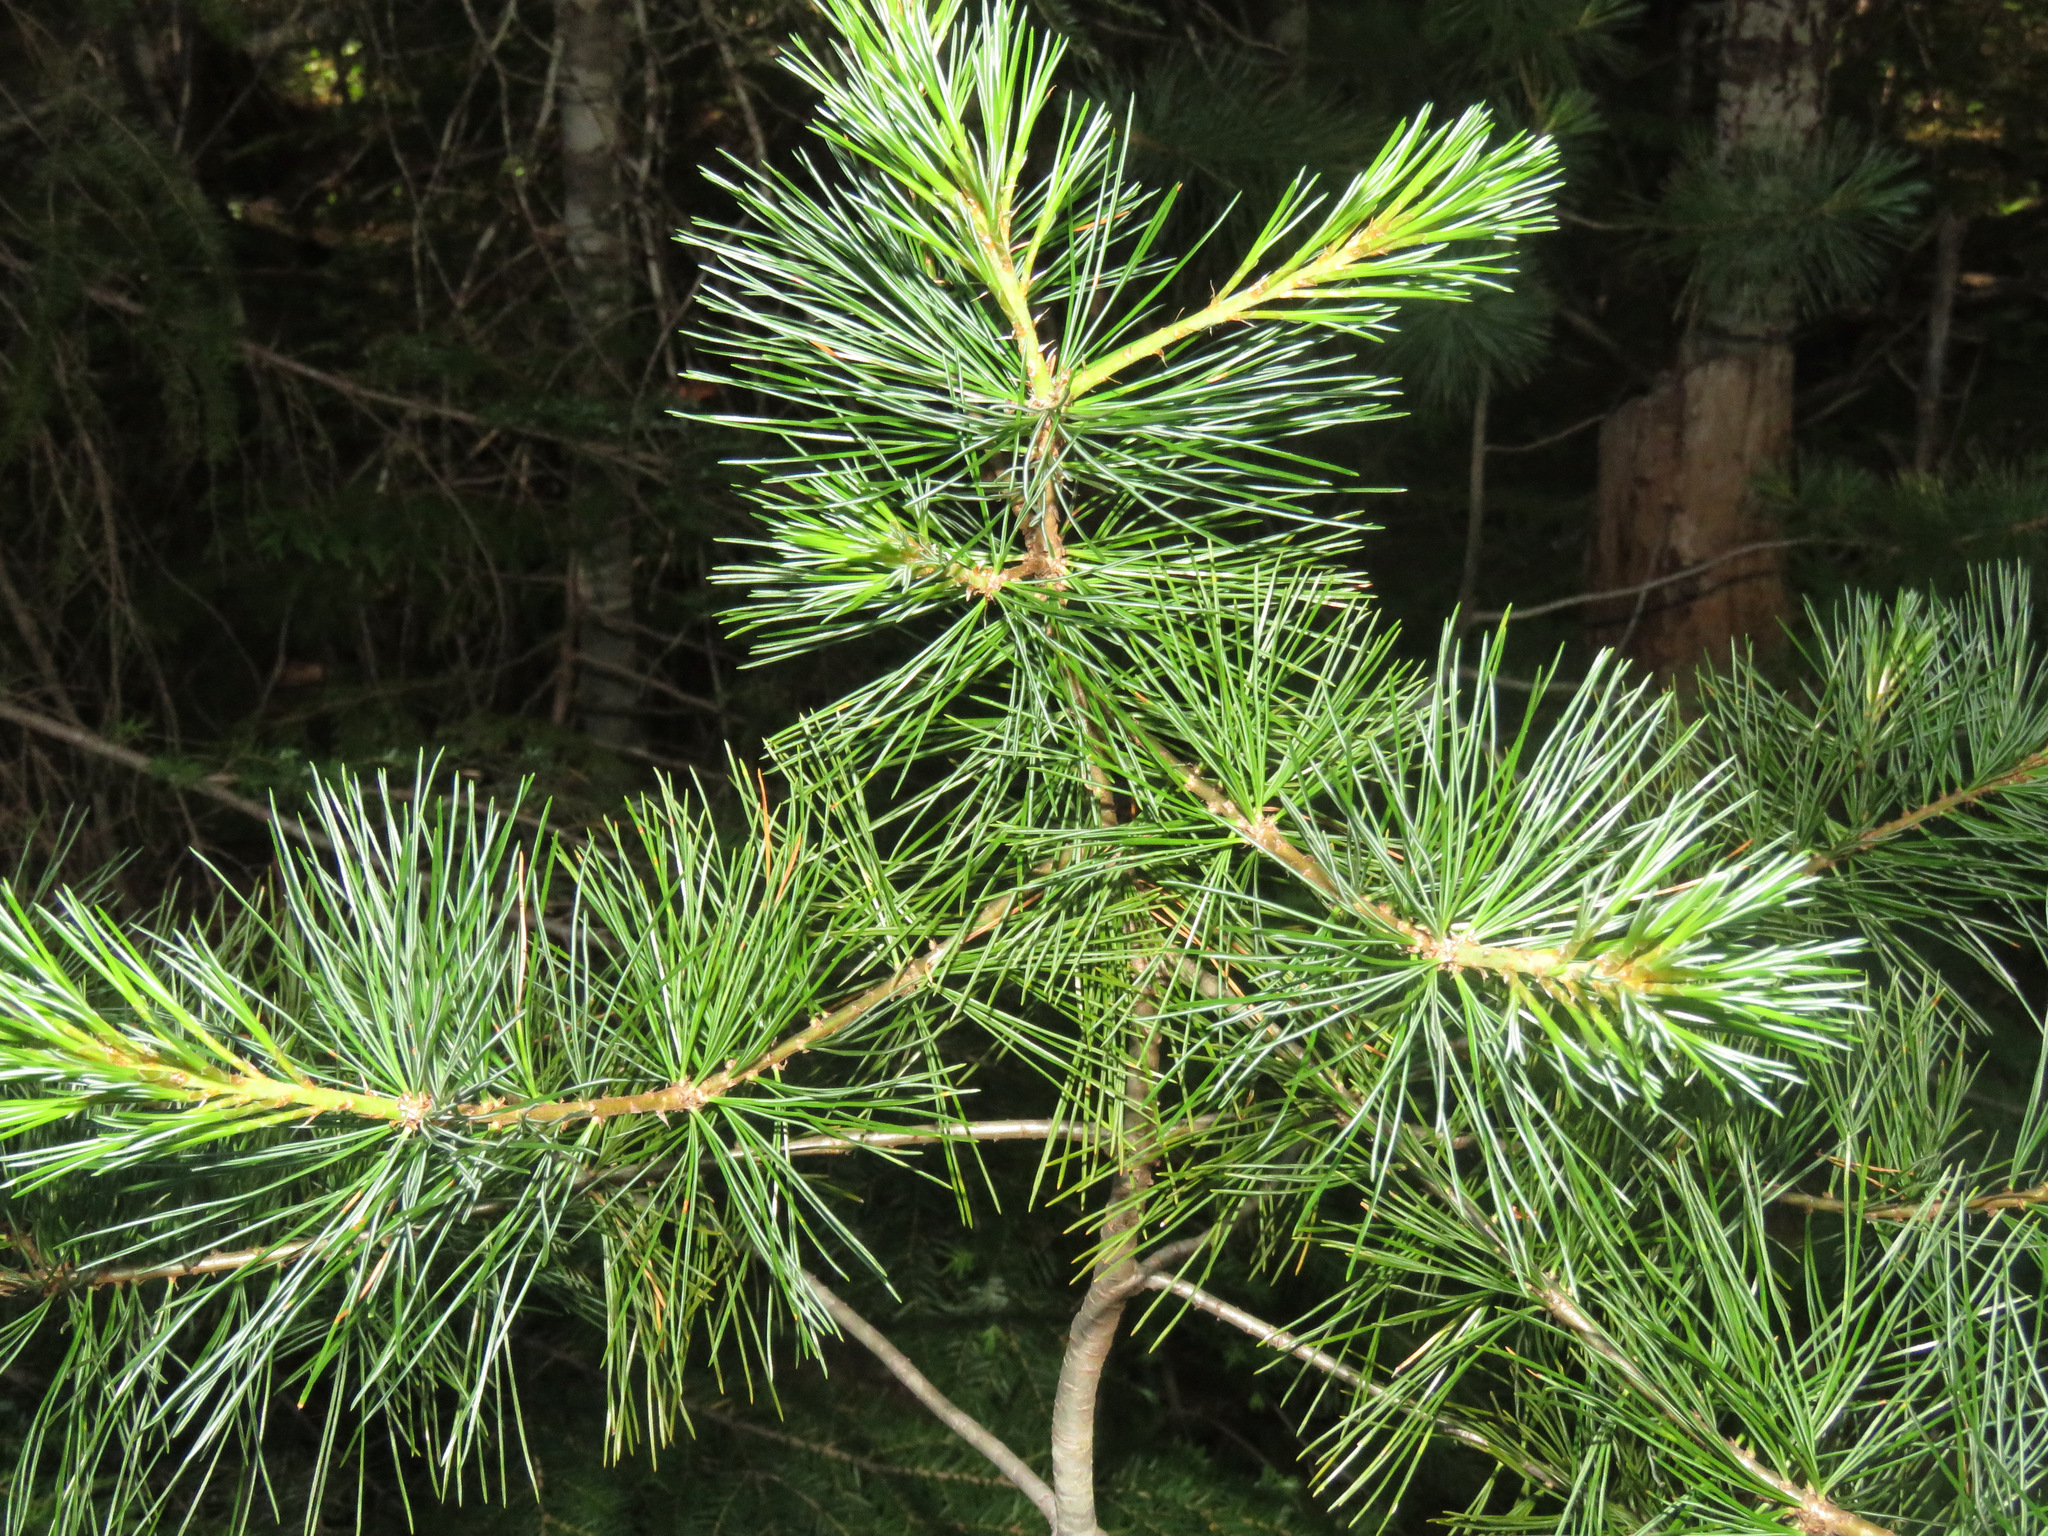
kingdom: Plantae
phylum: Tracheophyta
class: Pinopsida
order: Pinales
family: Pinaceae
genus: Pinus
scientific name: Pinus monticola
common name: Western white pine
